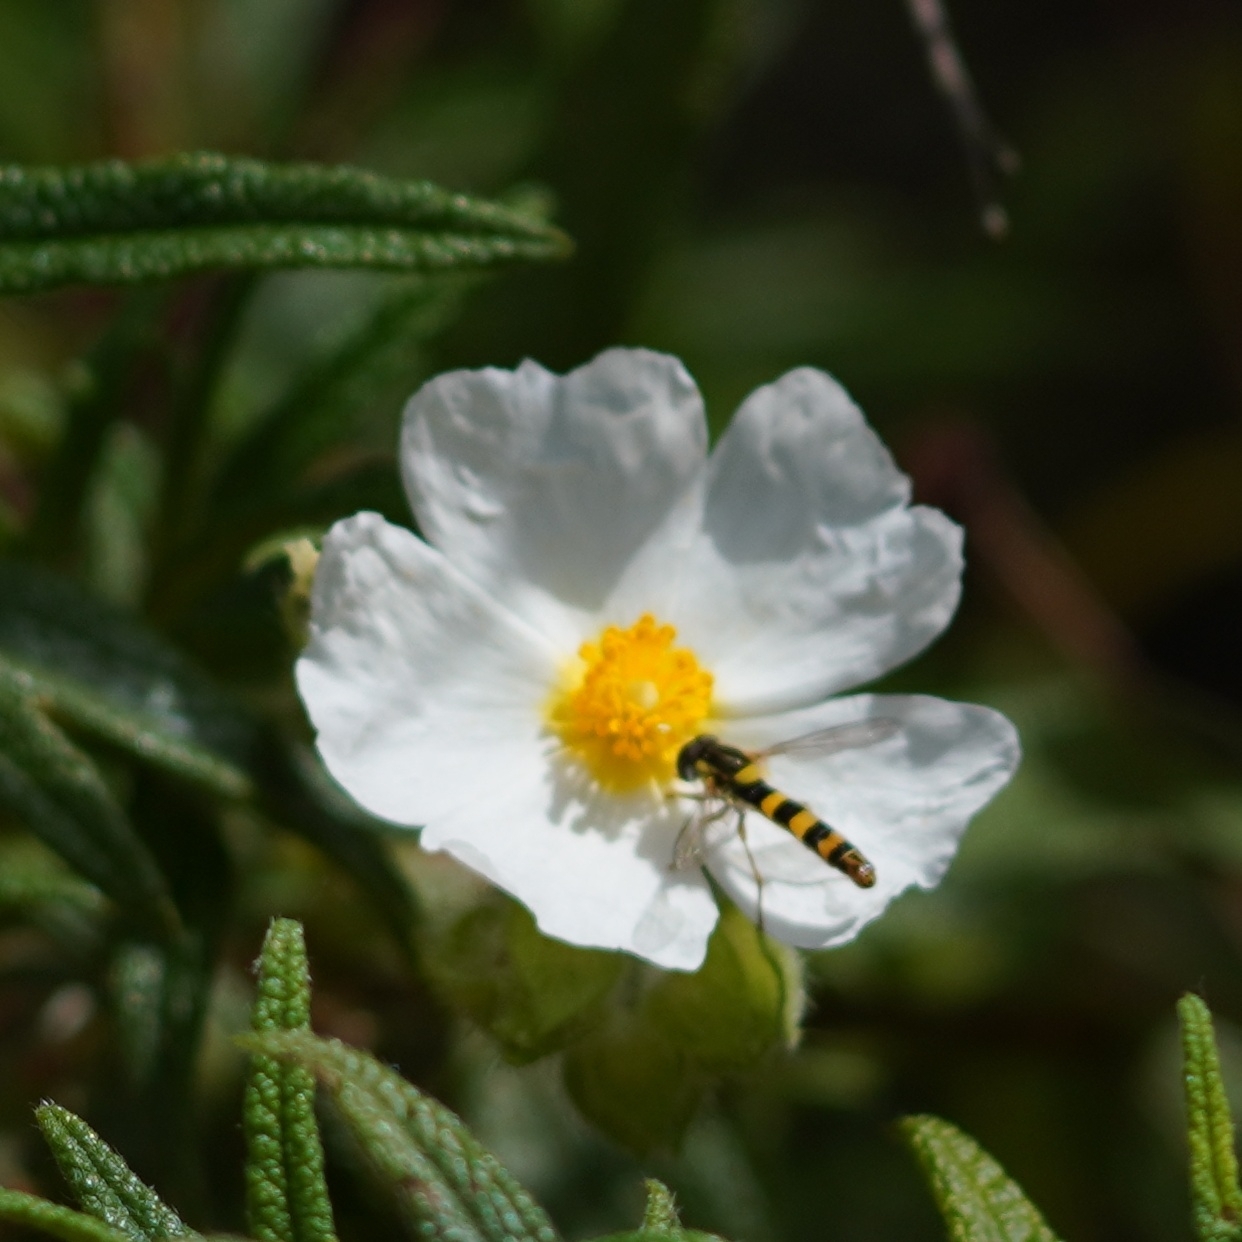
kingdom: Animalia
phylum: Arthropoda
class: Insecta
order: Diptera
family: Syrphidae
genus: Sphaerophoria
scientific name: Sphaerophoria scripta
